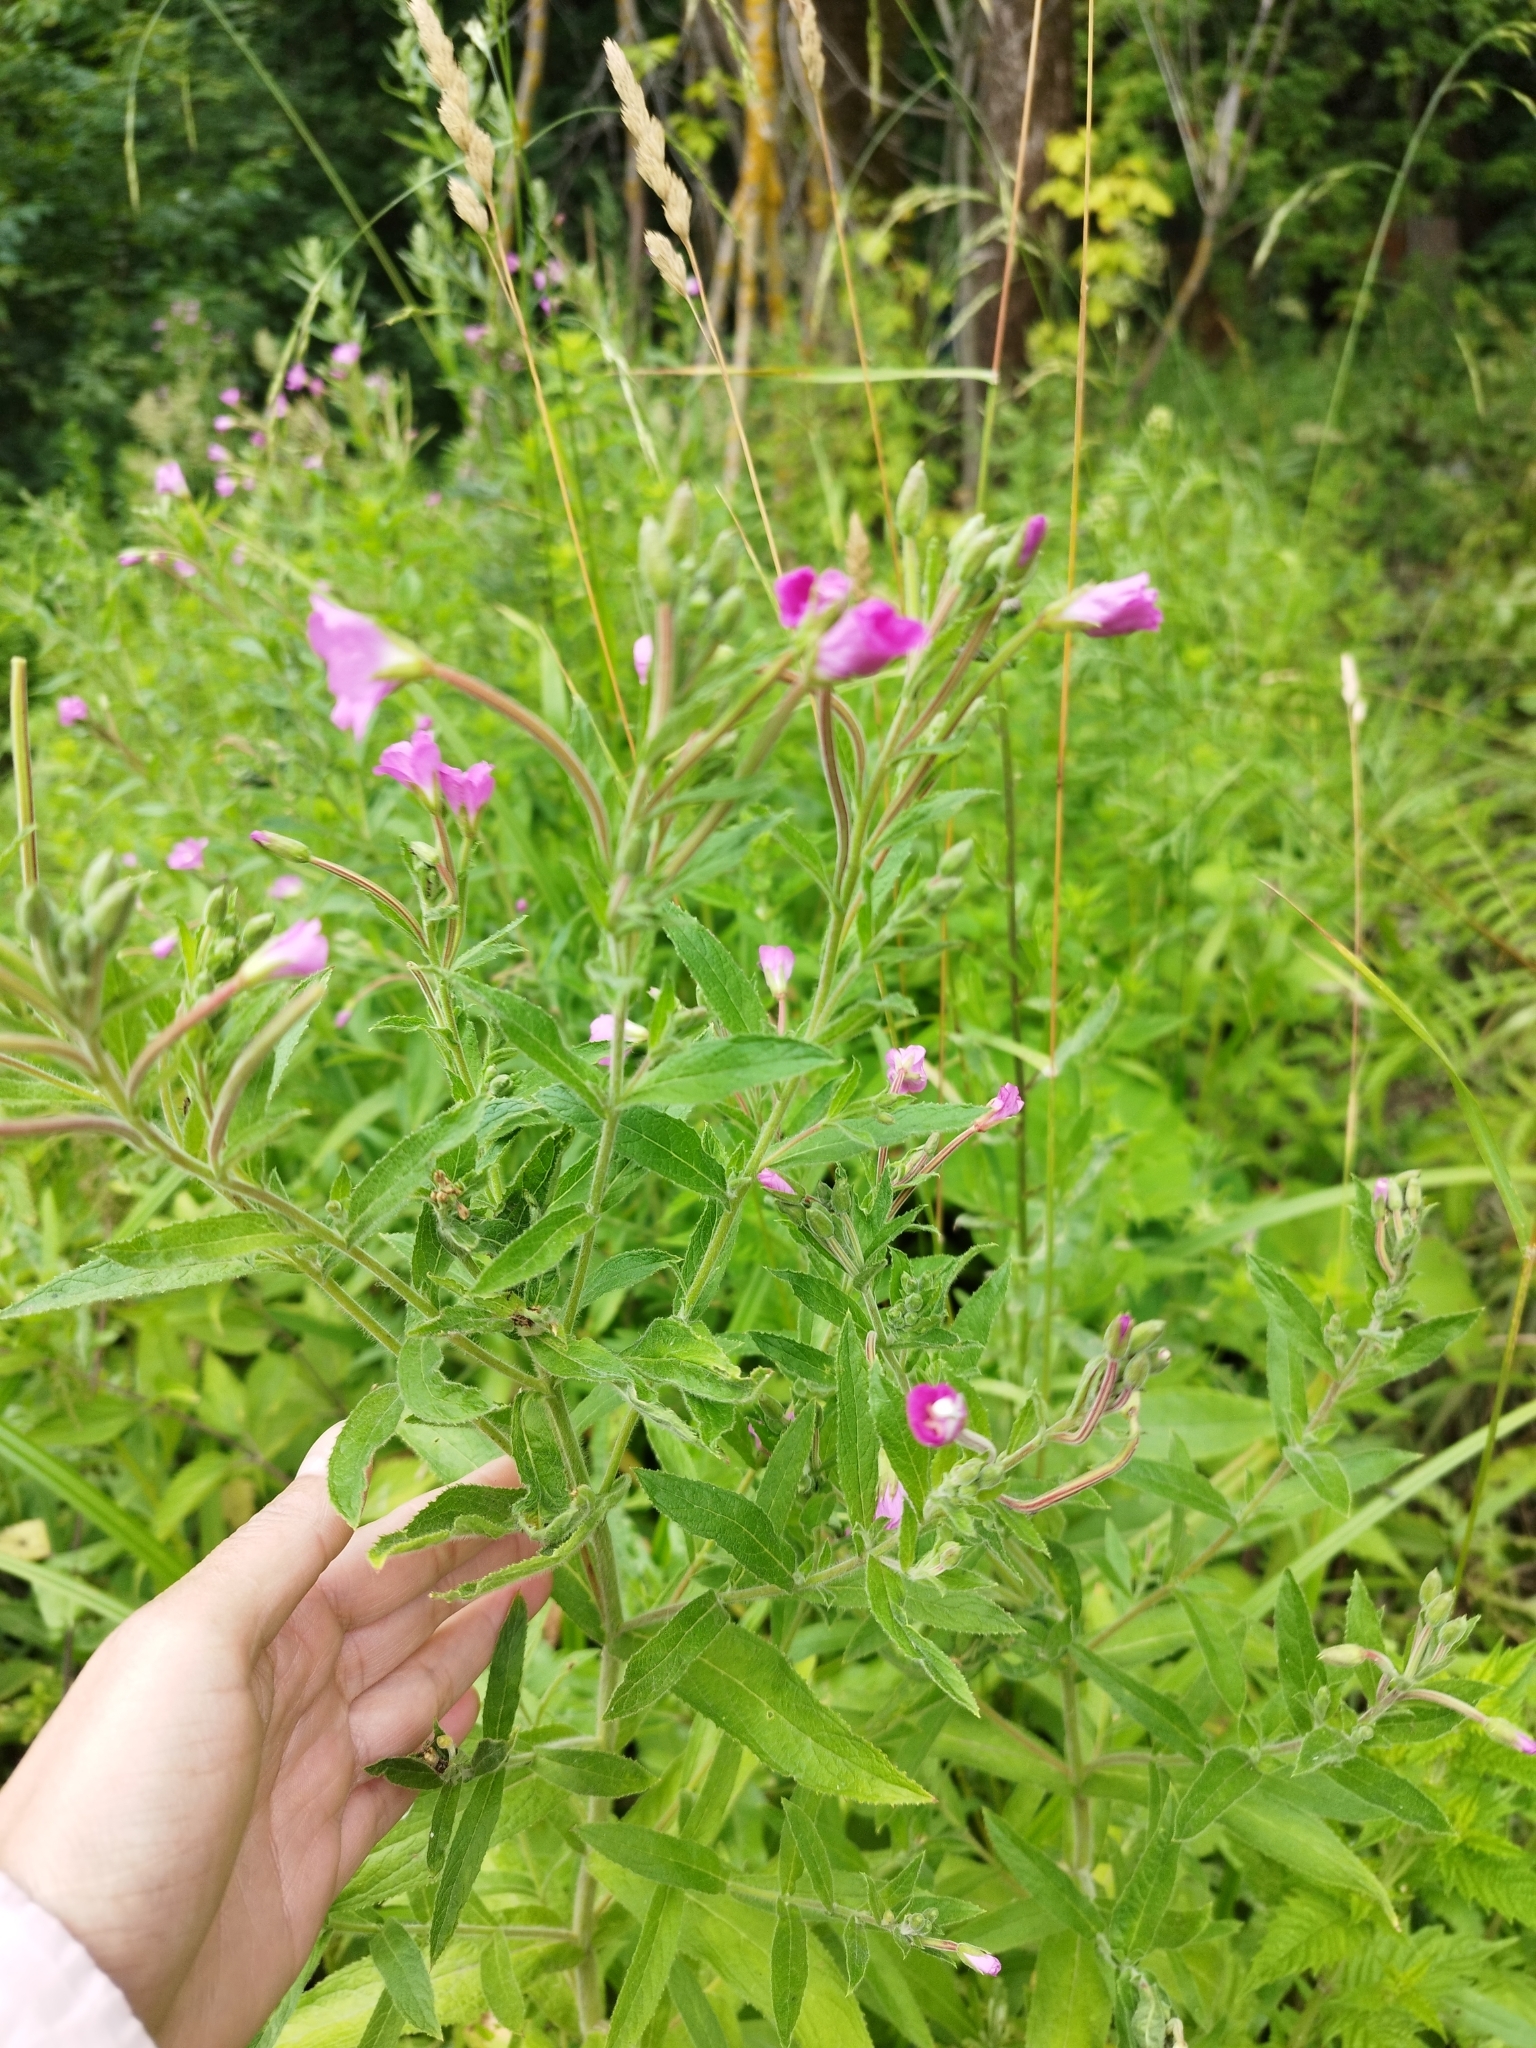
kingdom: Plantae
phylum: Tracheophyta
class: Magnoliopsida
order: Myrtales
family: Onagraceae
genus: Epilobium
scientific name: Epilobium hirsutum
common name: Great willowherb
